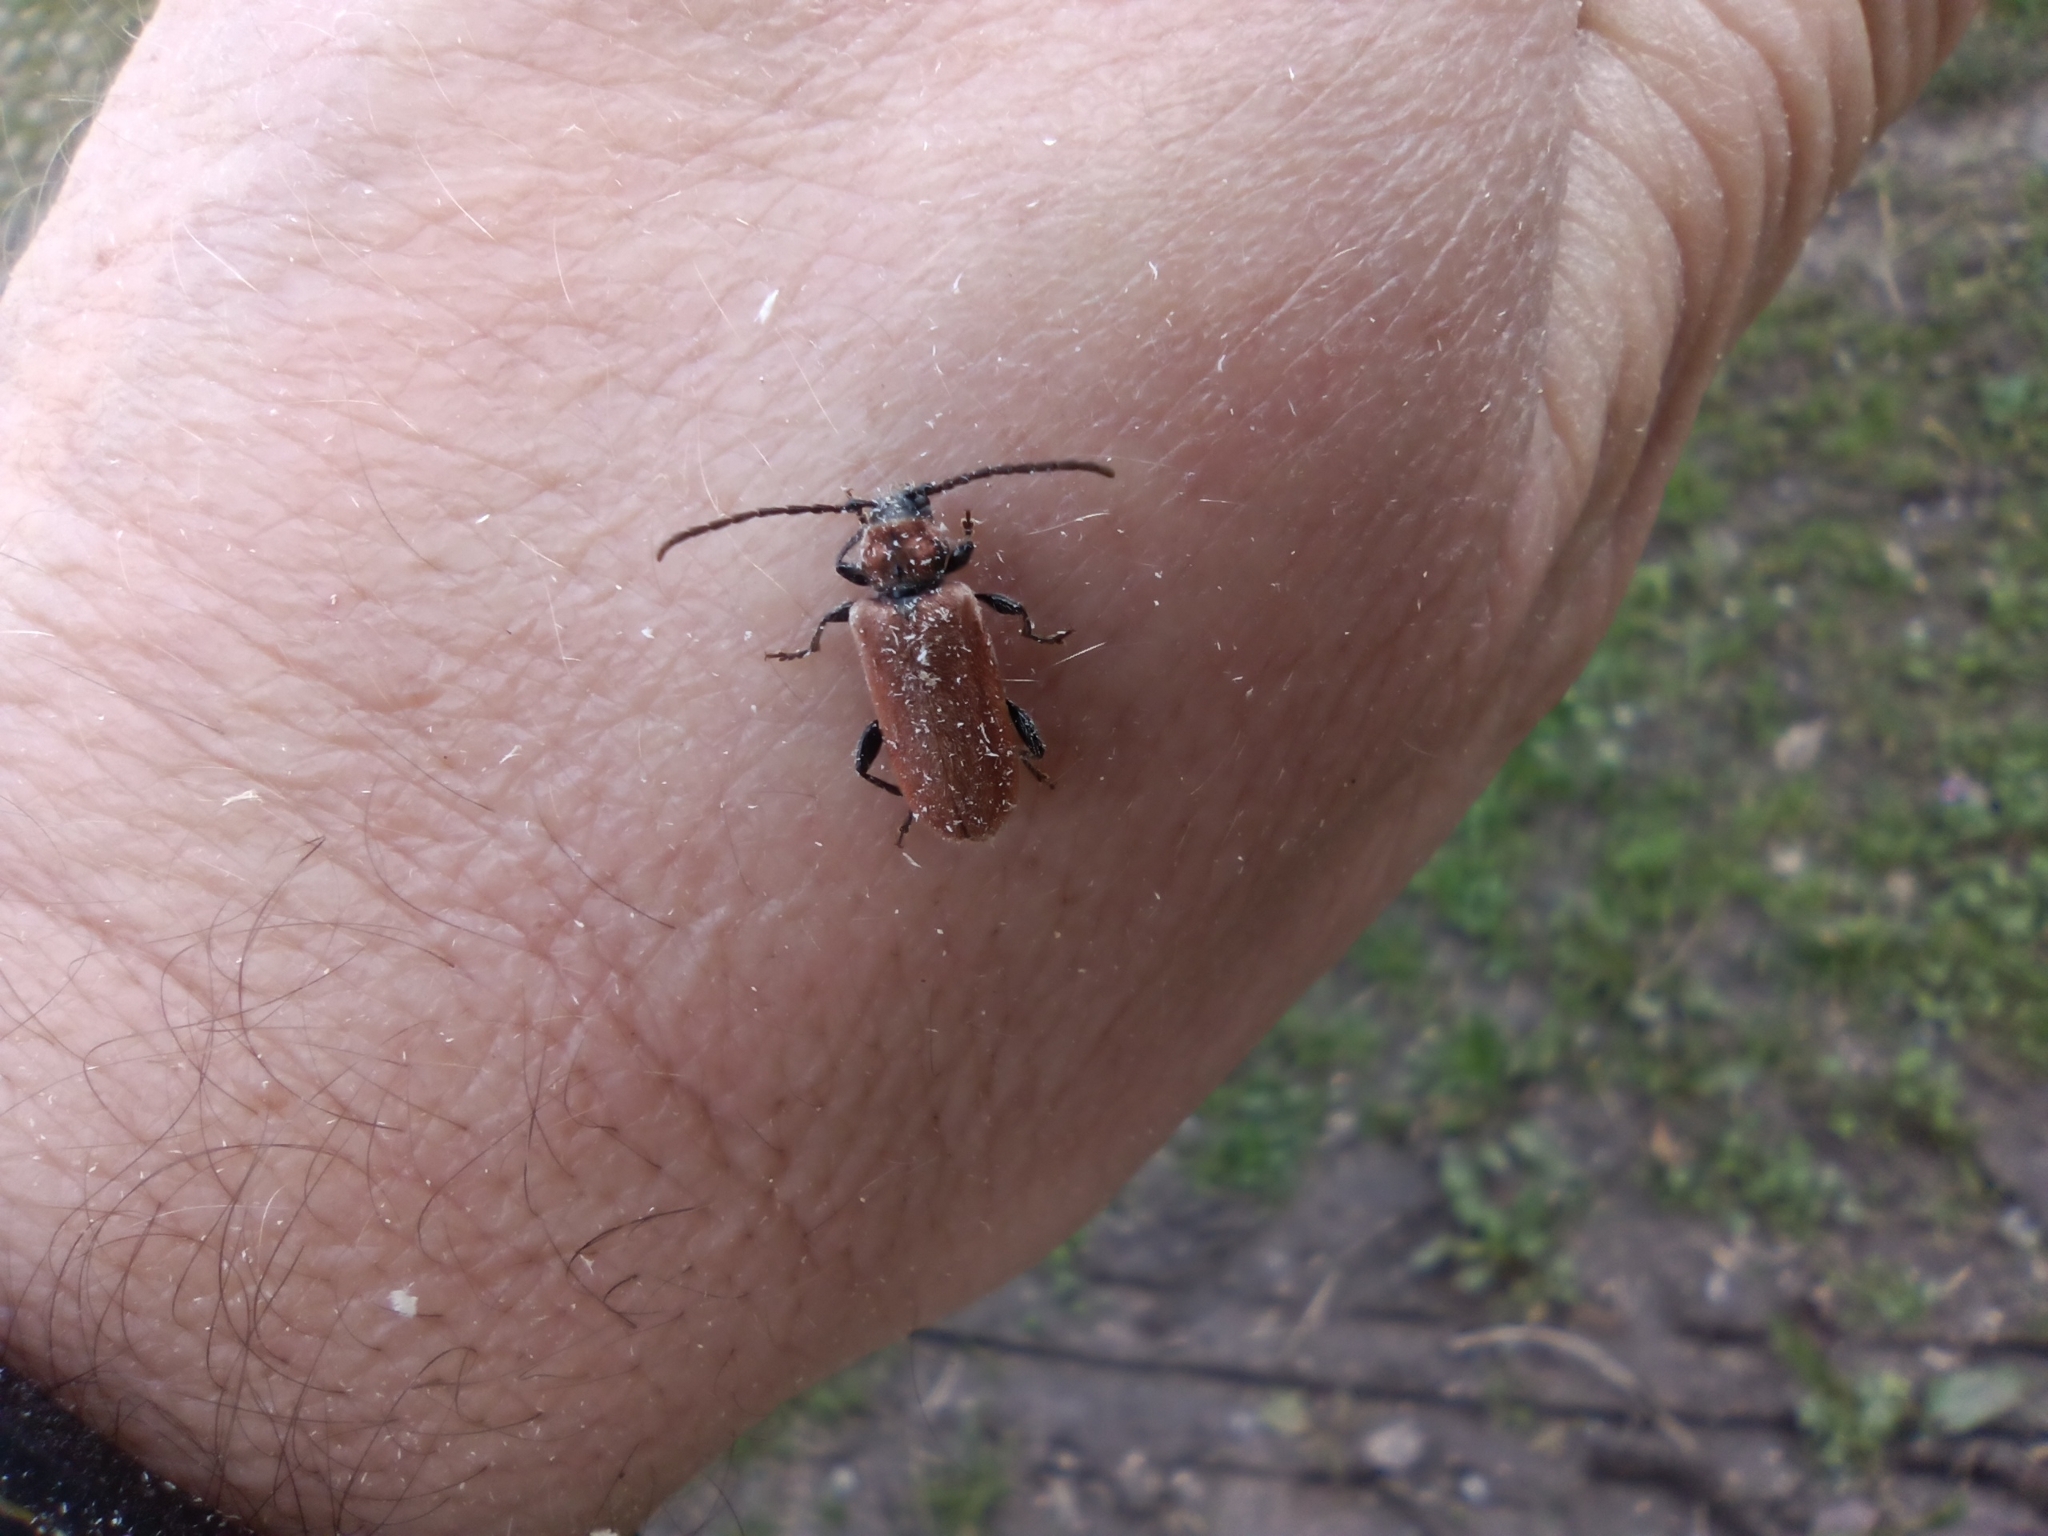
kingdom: Animalia
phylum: Arthropoda
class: Insecta
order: Coleoptera
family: Cerambycidae
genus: Pyrrhidium
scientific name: Pyrrhidium sanguineum
